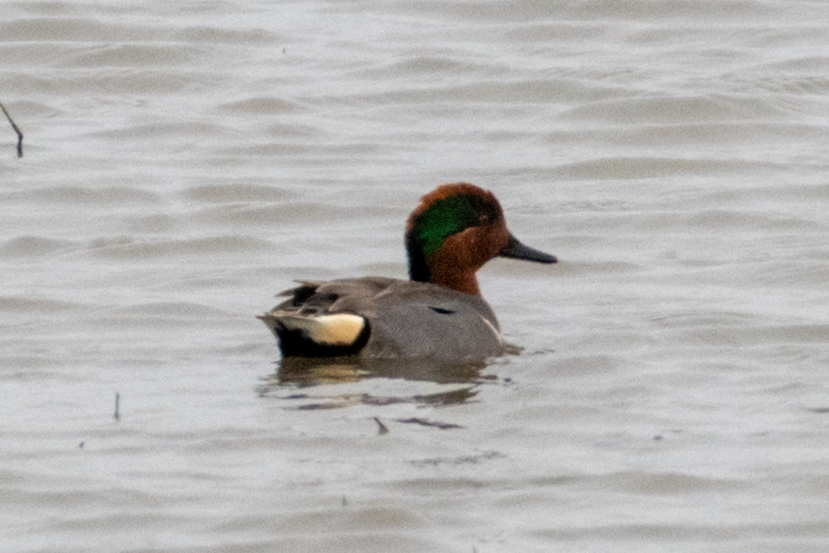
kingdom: Animalia
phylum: Chordata
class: Aves
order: Anseriformes
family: Anatidae
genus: Anas
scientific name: Anas crecca
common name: Eurasian teal
